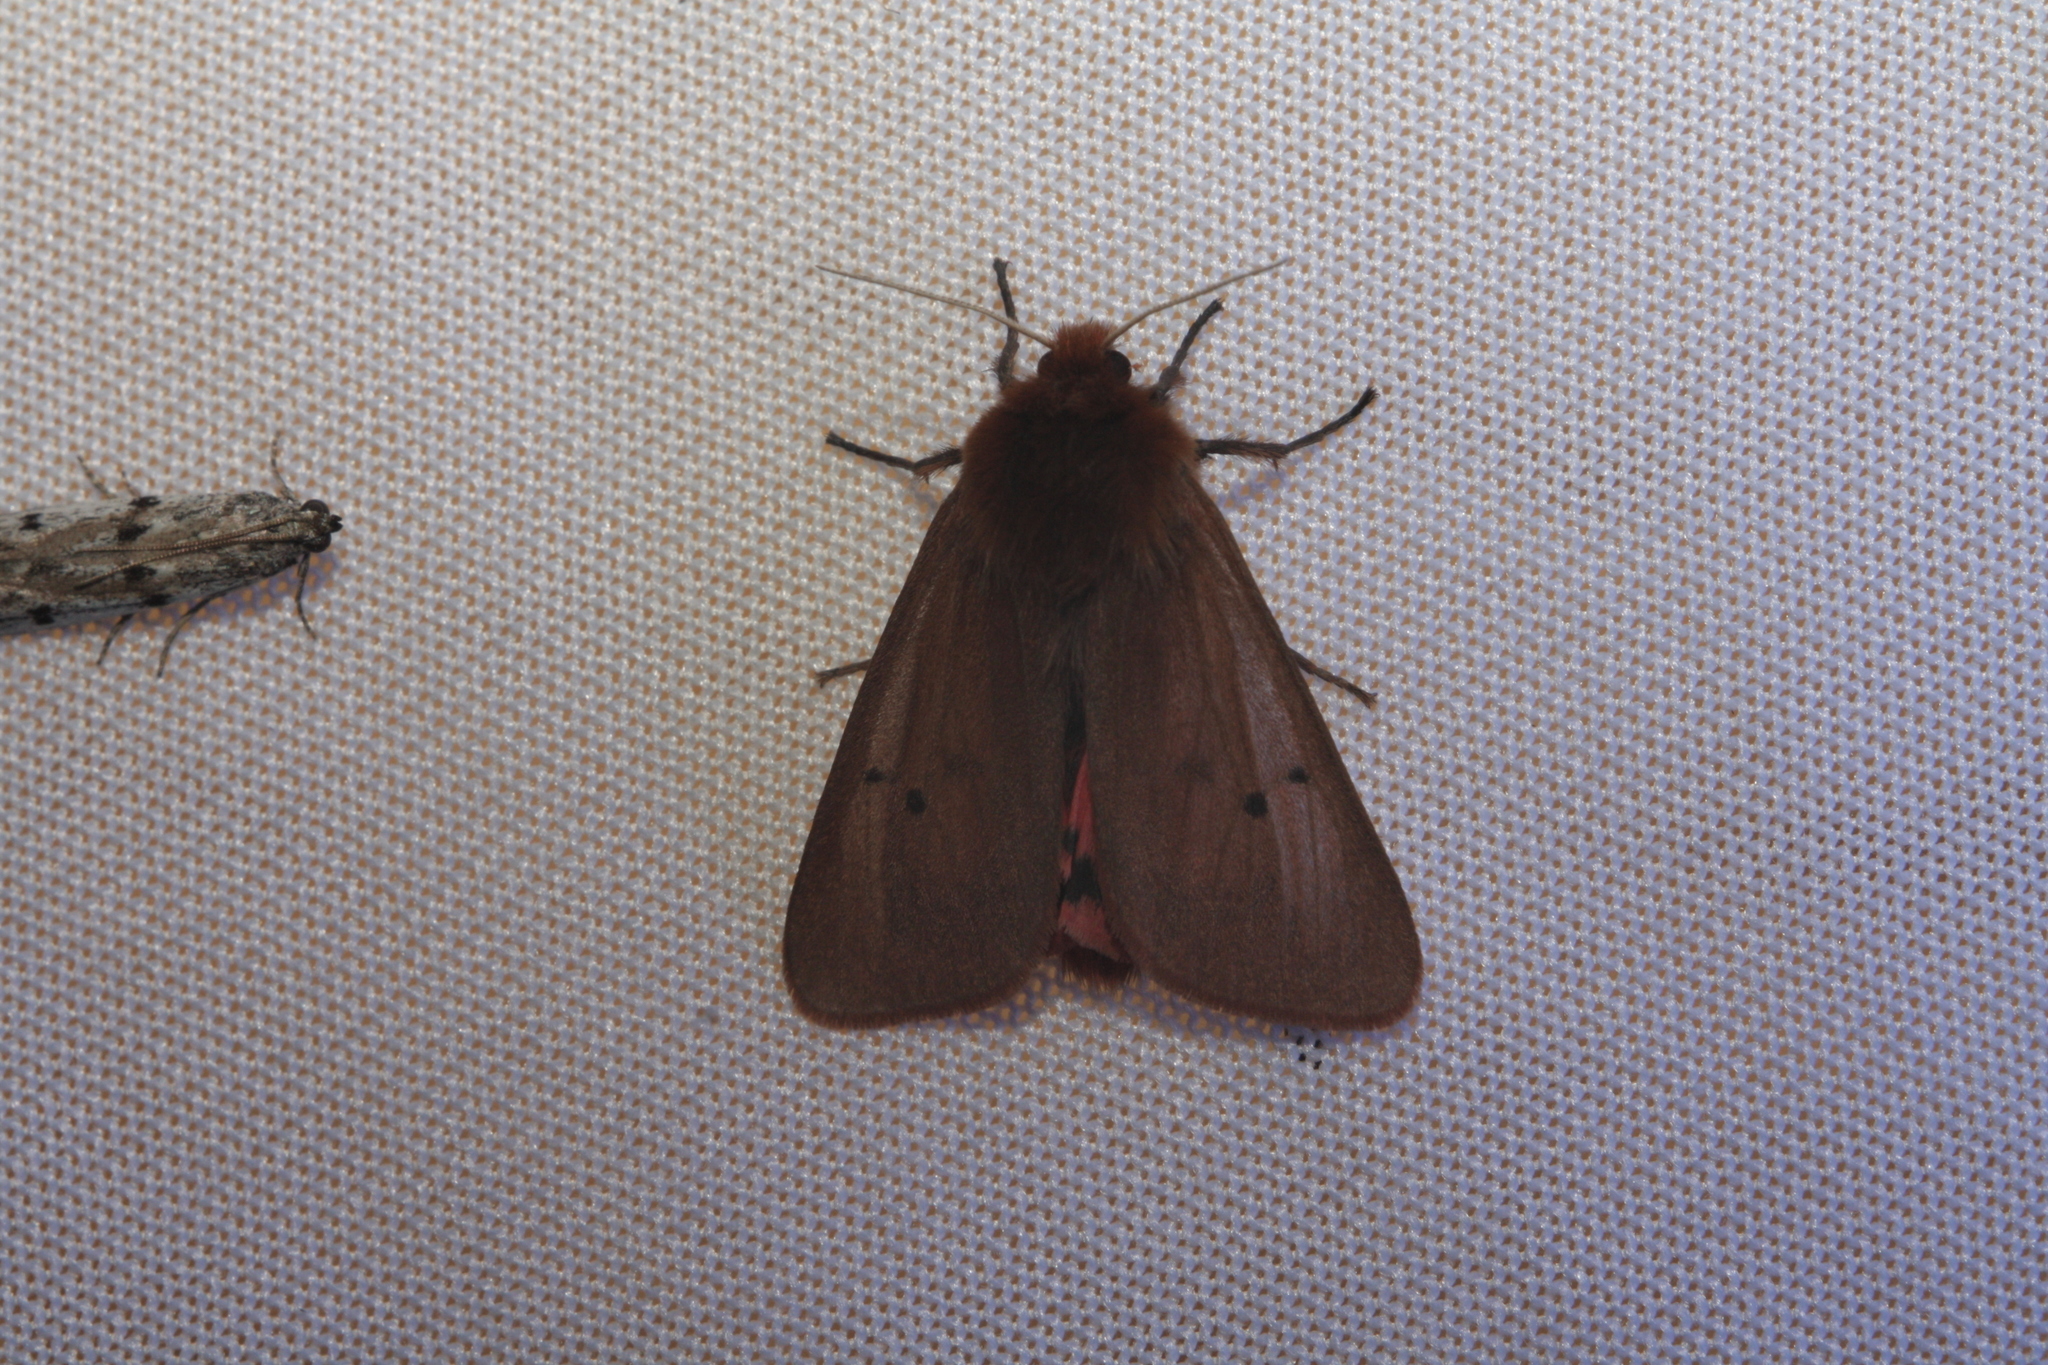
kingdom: Animalia
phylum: Arthropoda
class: Insecta
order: Lepidoptera
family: Erebidae
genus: Phragmatobia
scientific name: Phragmatobia fuliginosa
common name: Ruby tiger
